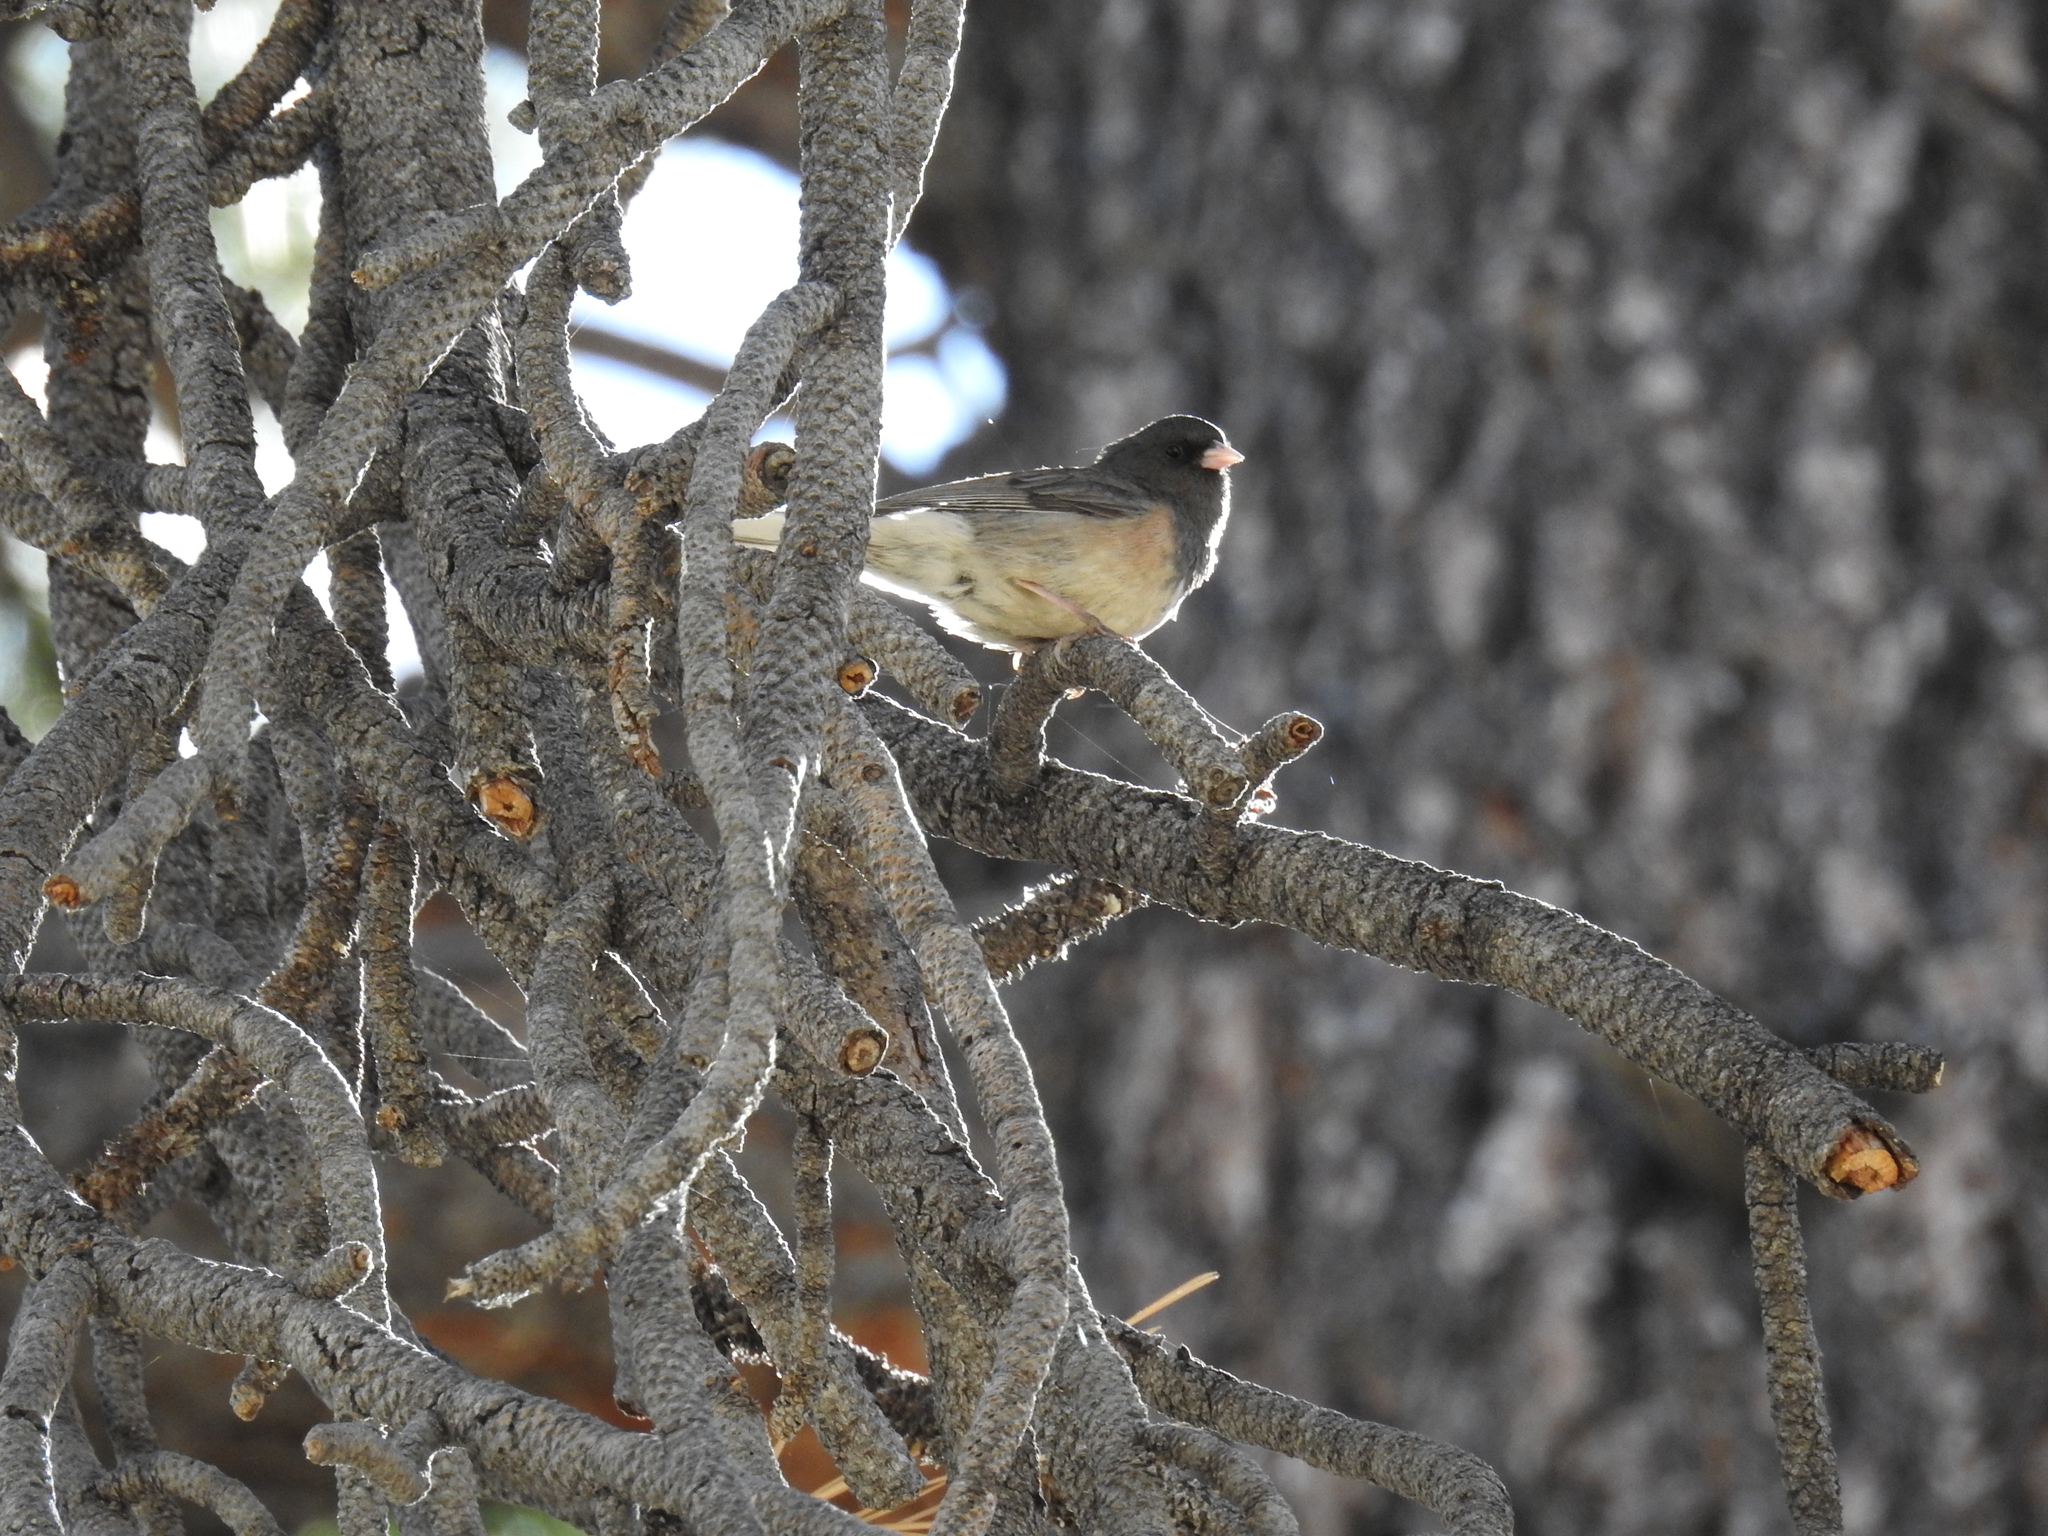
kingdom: Animalia
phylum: Chordata
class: Aves
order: Passeriformes
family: Passerellidae
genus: Junco
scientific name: Junco hyemalis
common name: Dark-eyed junco
